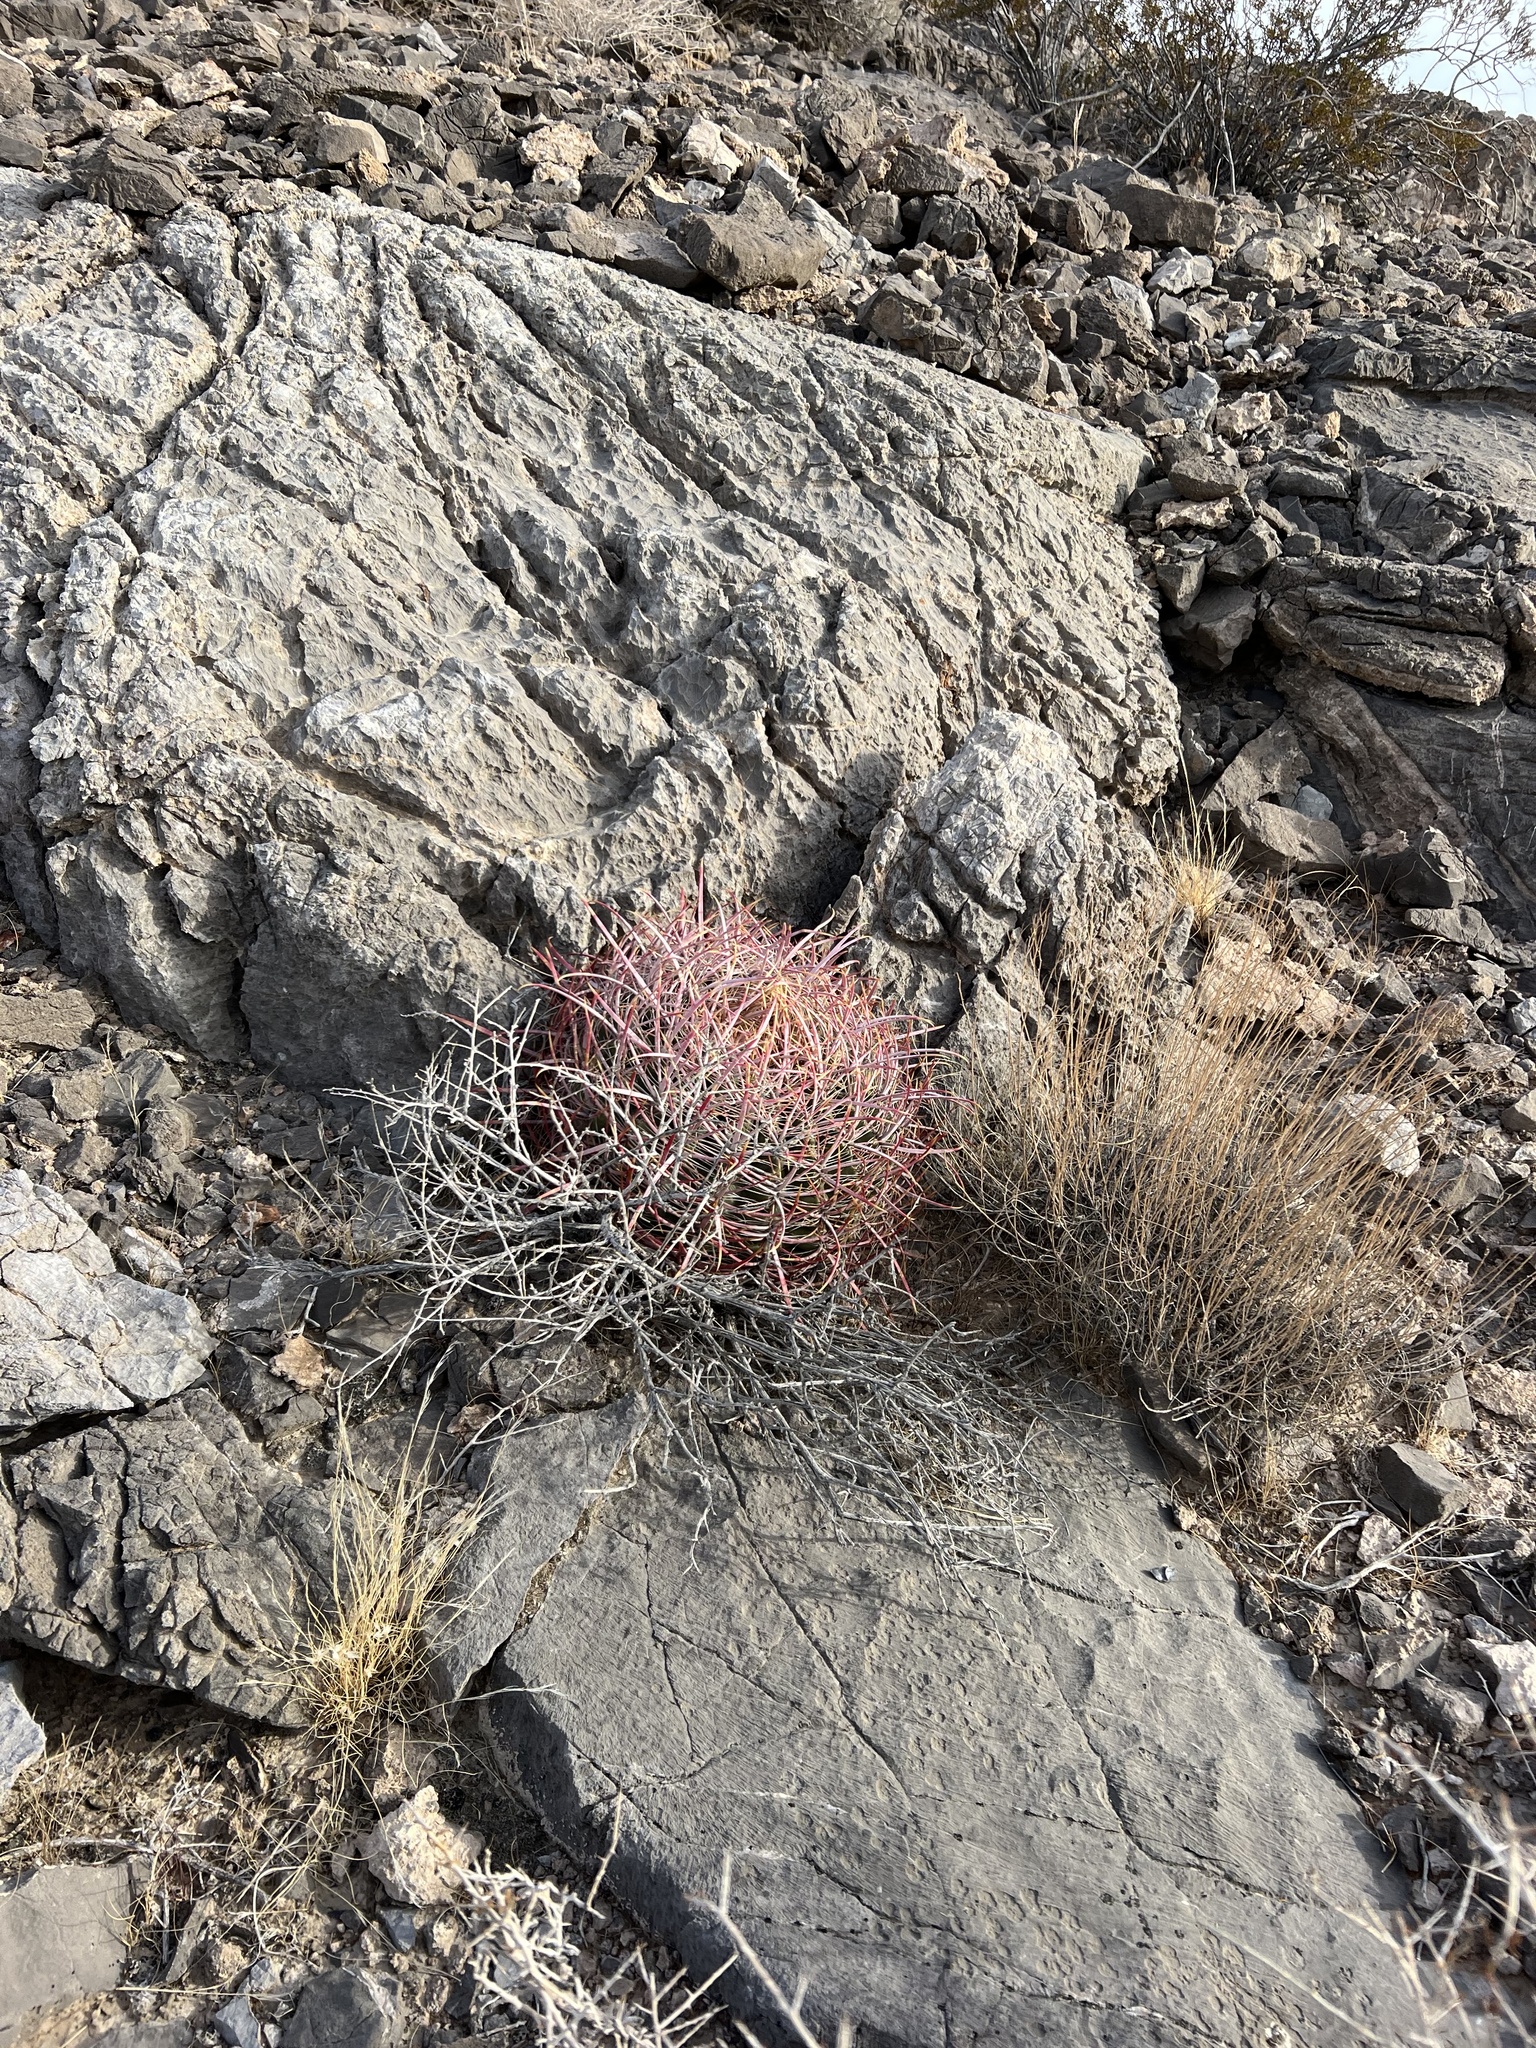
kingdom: Plantae
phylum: Tracheophyta
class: Magnoliopsida
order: Caryophyllales
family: Cactaceae
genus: Ferocactus
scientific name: Ferocactus cylindraceus
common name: California barrel cactus
